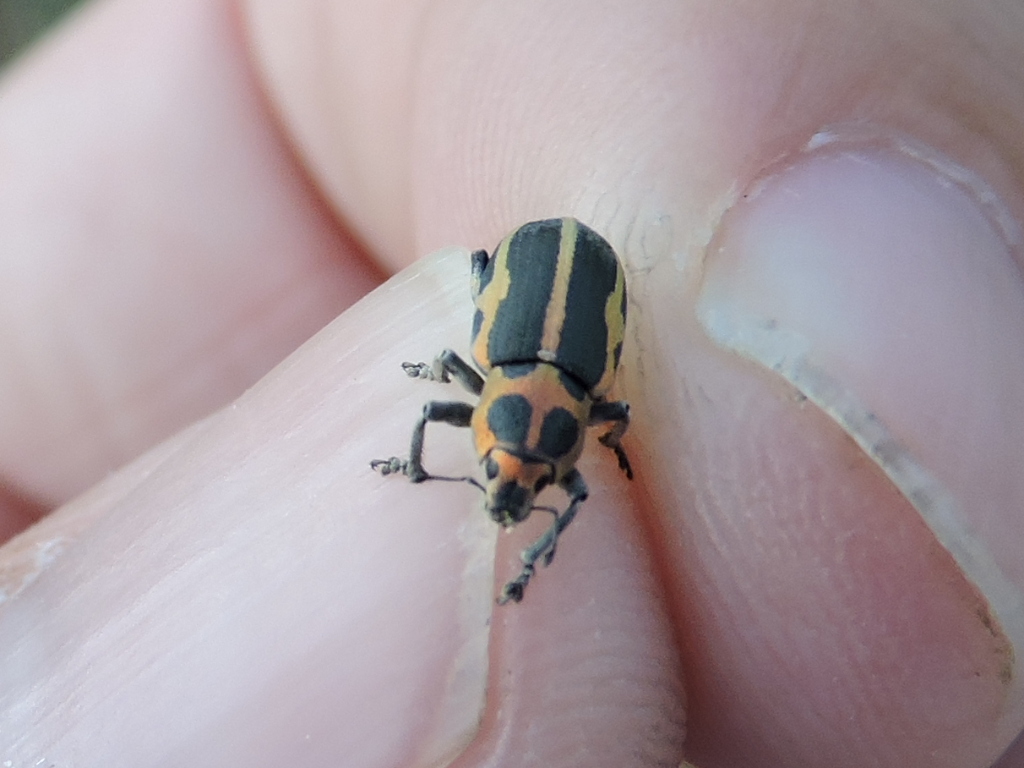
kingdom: Animalia
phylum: Arthropoda
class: Insecta
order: Coleoptera
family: Curculionidae
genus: Eudiagogus
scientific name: Eudiagogus pulcher
